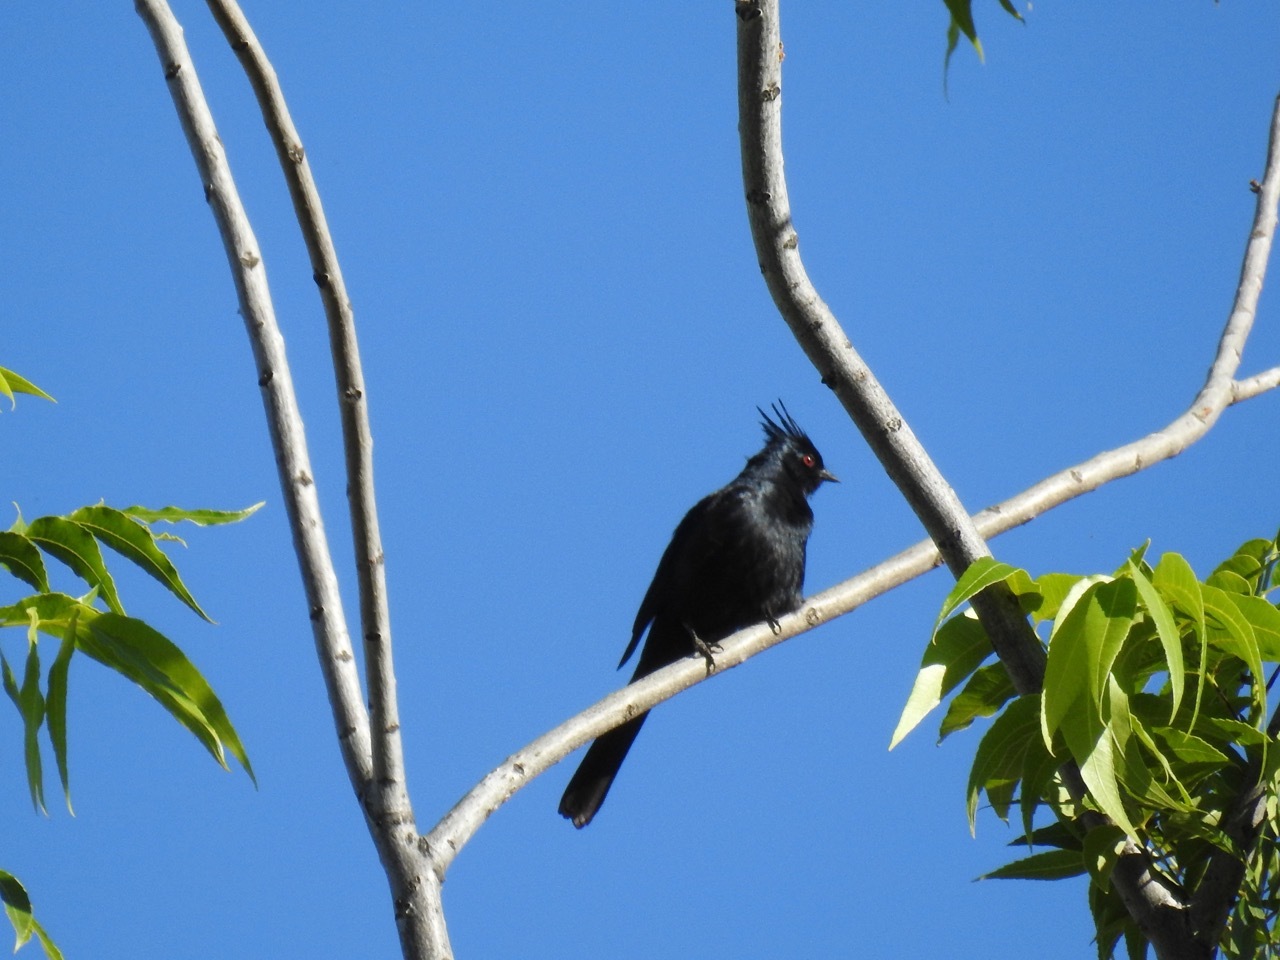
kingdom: Animalia
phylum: Chordata
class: Aves
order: Passeriformes
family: Ptilogonatidae
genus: Phainopepla
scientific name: Phainopepla nitens
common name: Phainopepla
